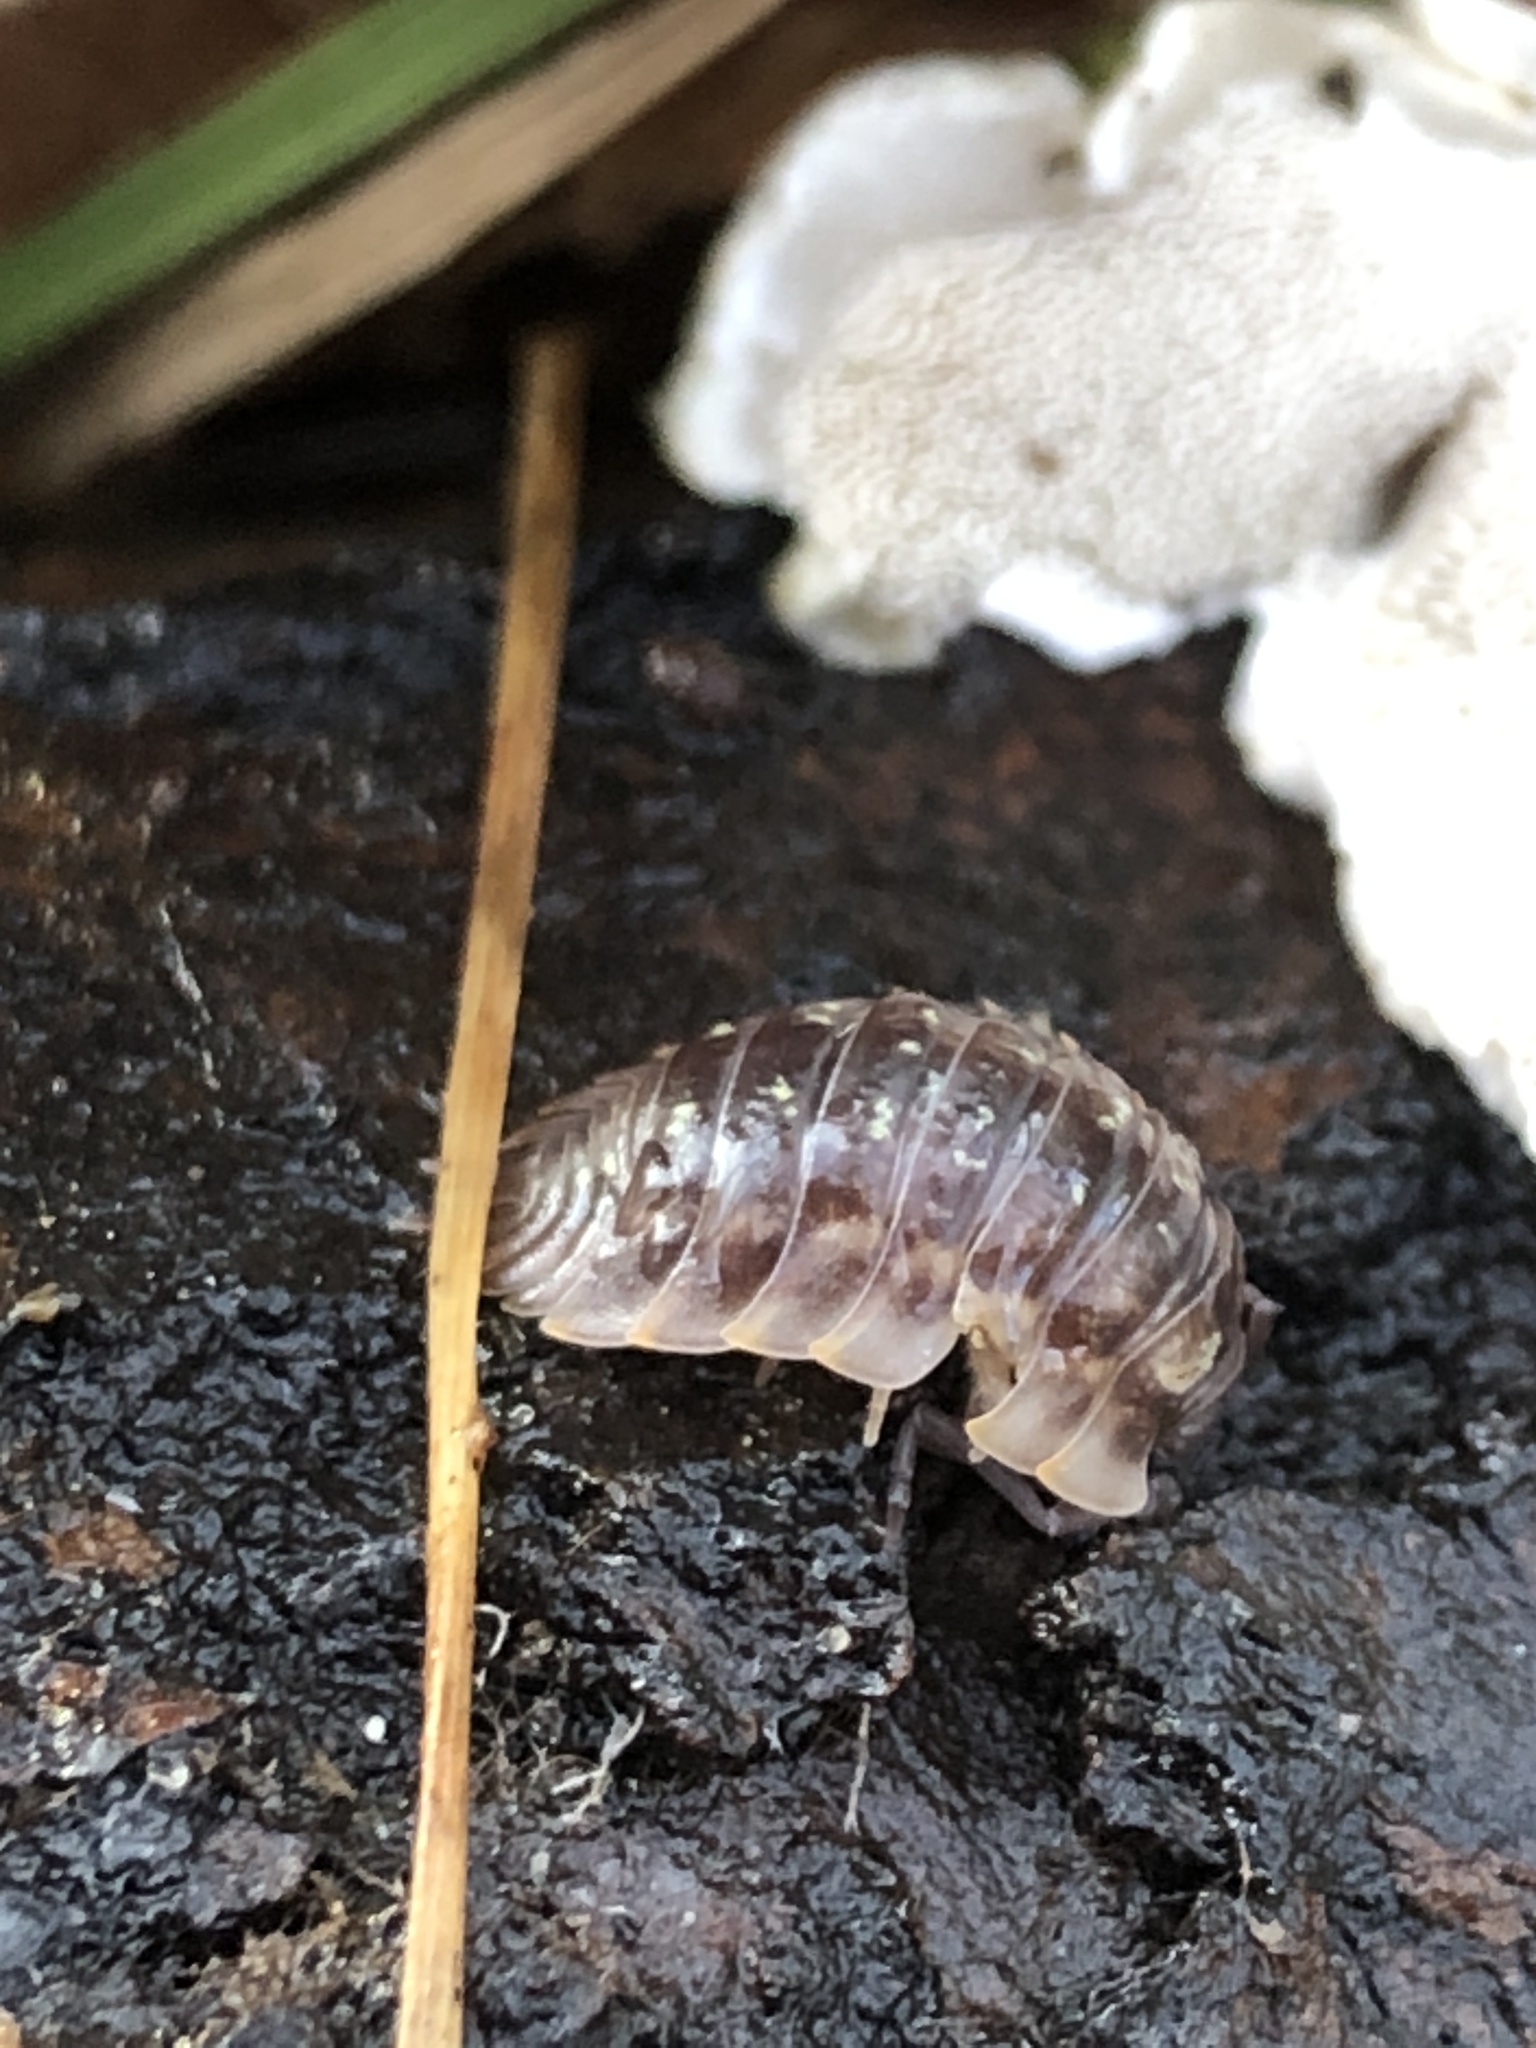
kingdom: Animalia
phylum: Arthropoda
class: Malacostraca
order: Isopoda
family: Oniscidae
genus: Oniscus
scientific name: Oniscus asellus
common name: Common shiny woodlouse
